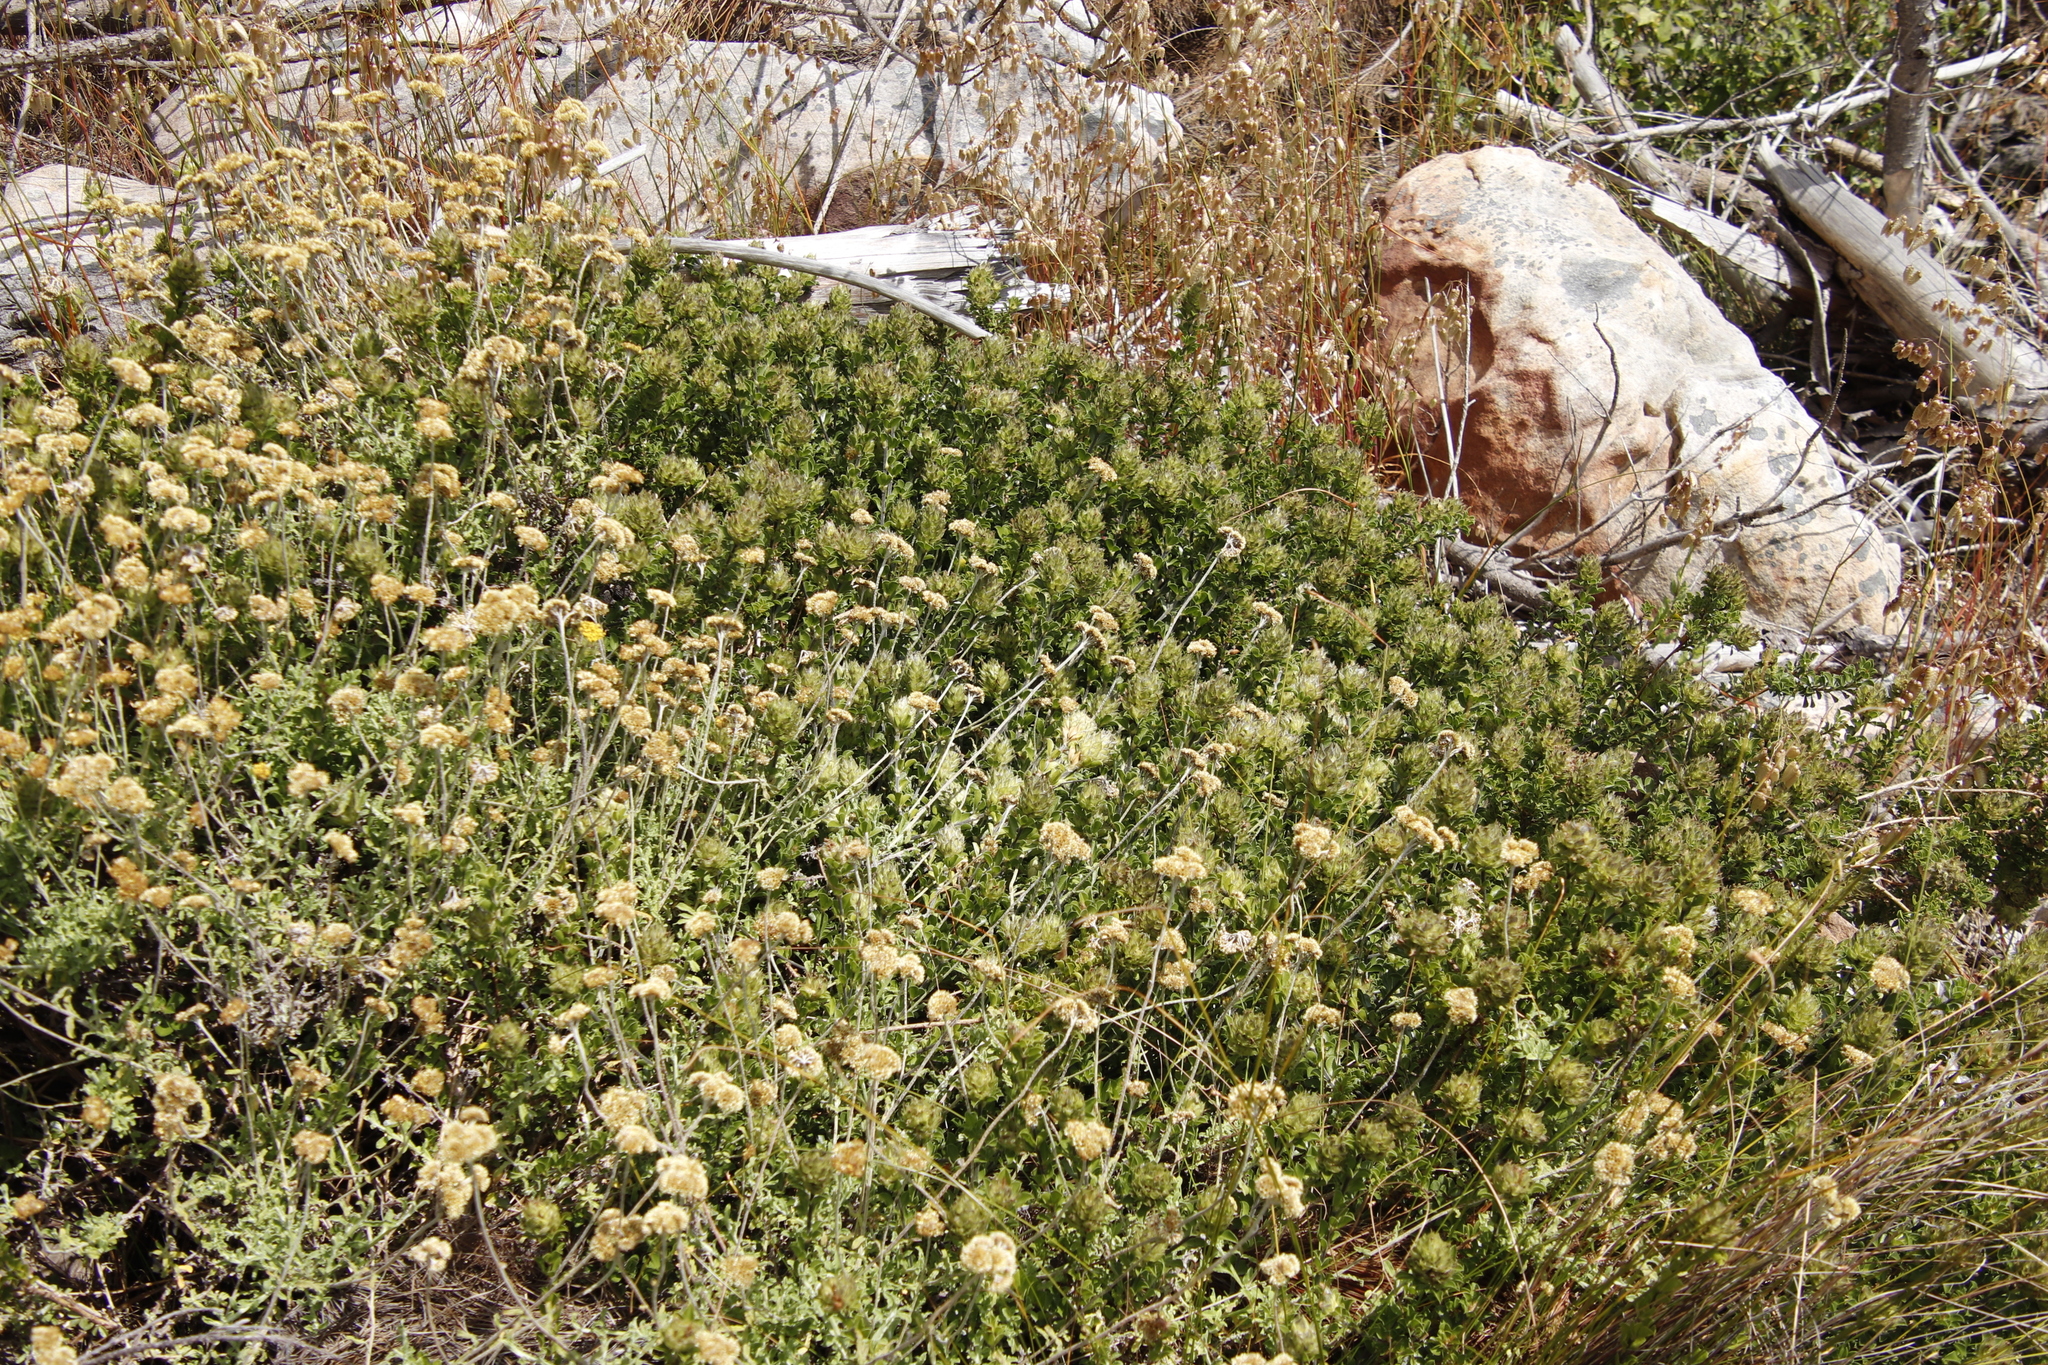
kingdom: Plantae
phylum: Tracheophyta
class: Magnoliopsida
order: Fabales
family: Fabaceae
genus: Psoralea
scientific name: Psoralea fruticans
